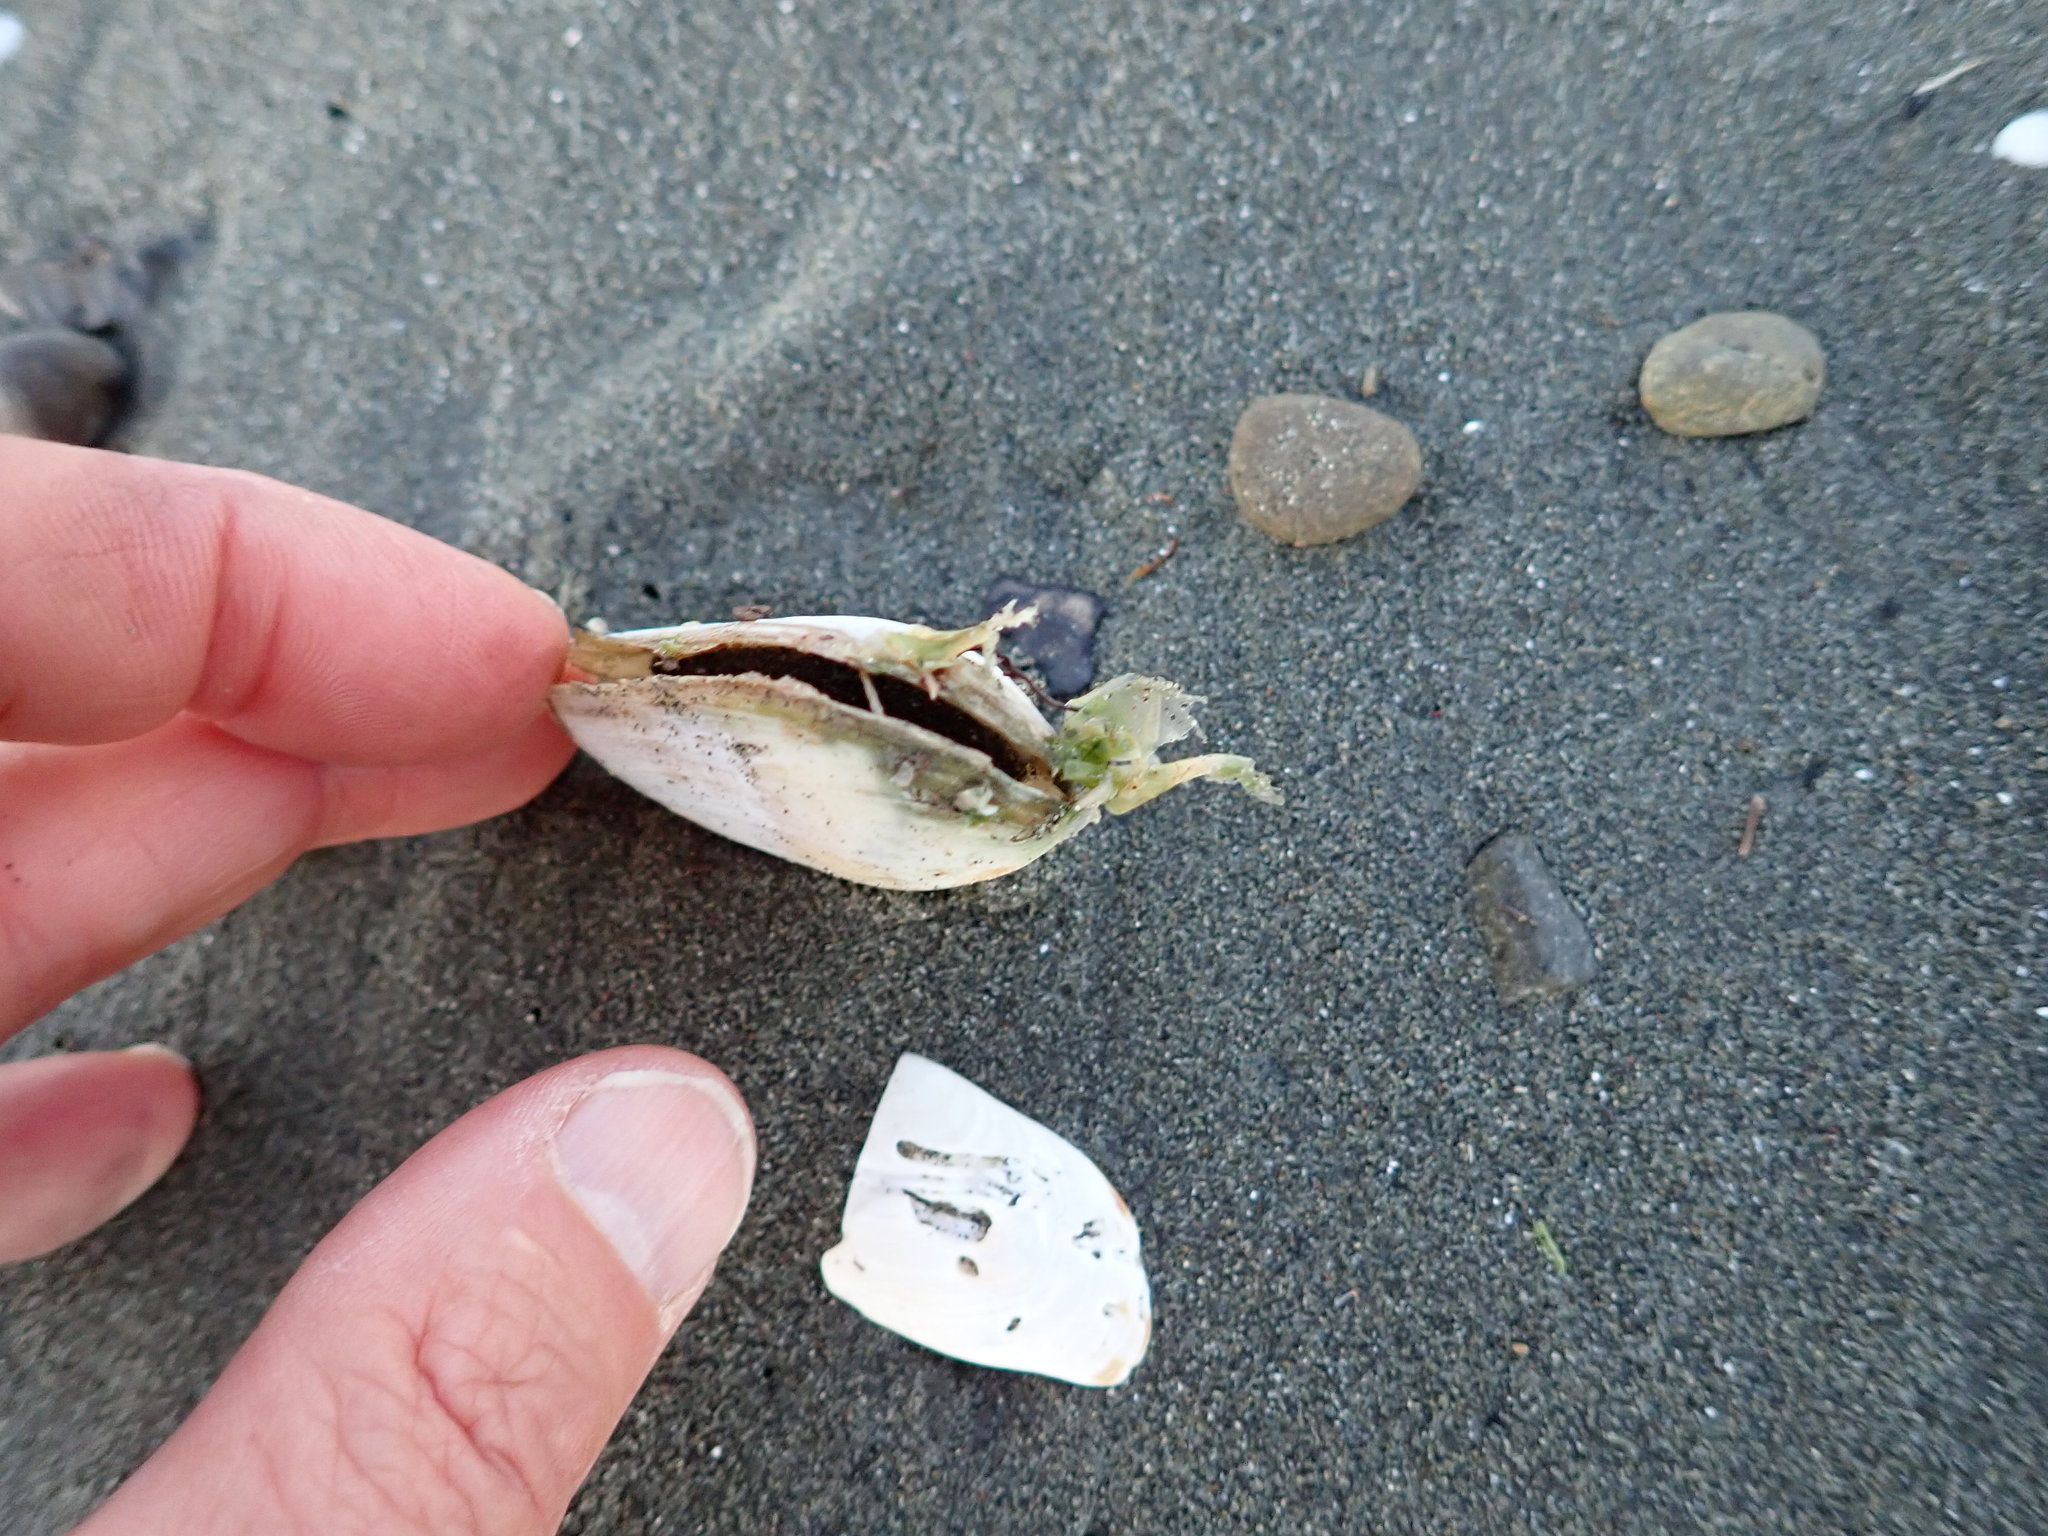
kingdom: Animalia
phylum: Mollusca
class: Bivalvia
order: Venerida
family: Mesodesmatidae
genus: Paphies
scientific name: Paphies australis
